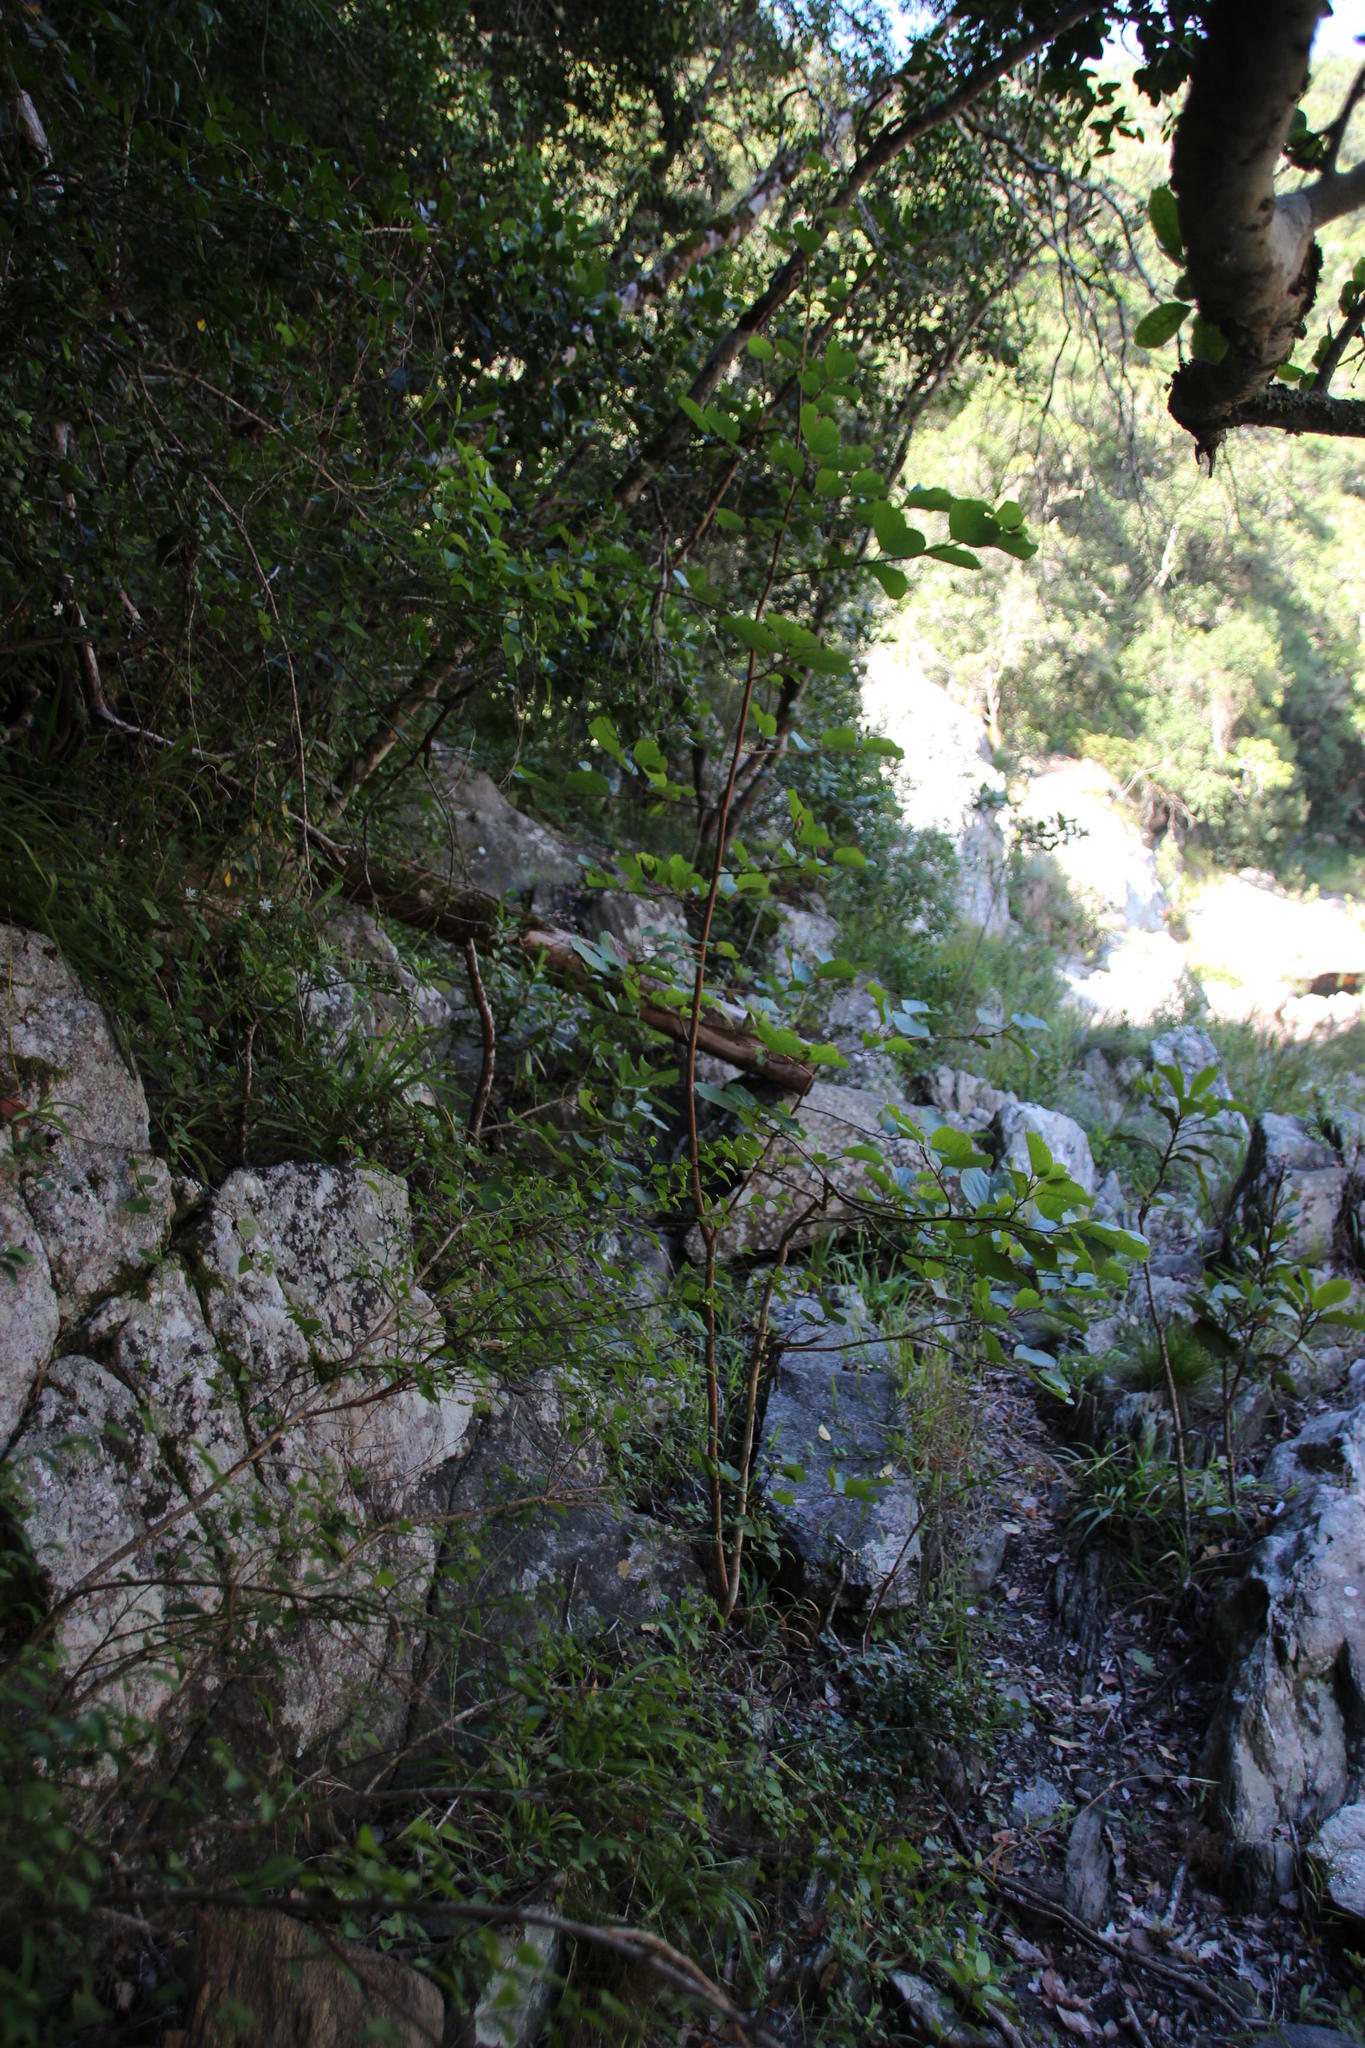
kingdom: Plantae
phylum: Tracheophyta
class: Magnoliopsida
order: Malpighiales
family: Salicaceae
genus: Trimeria
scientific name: Trimeria grandifolia
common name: Wild mulberry
